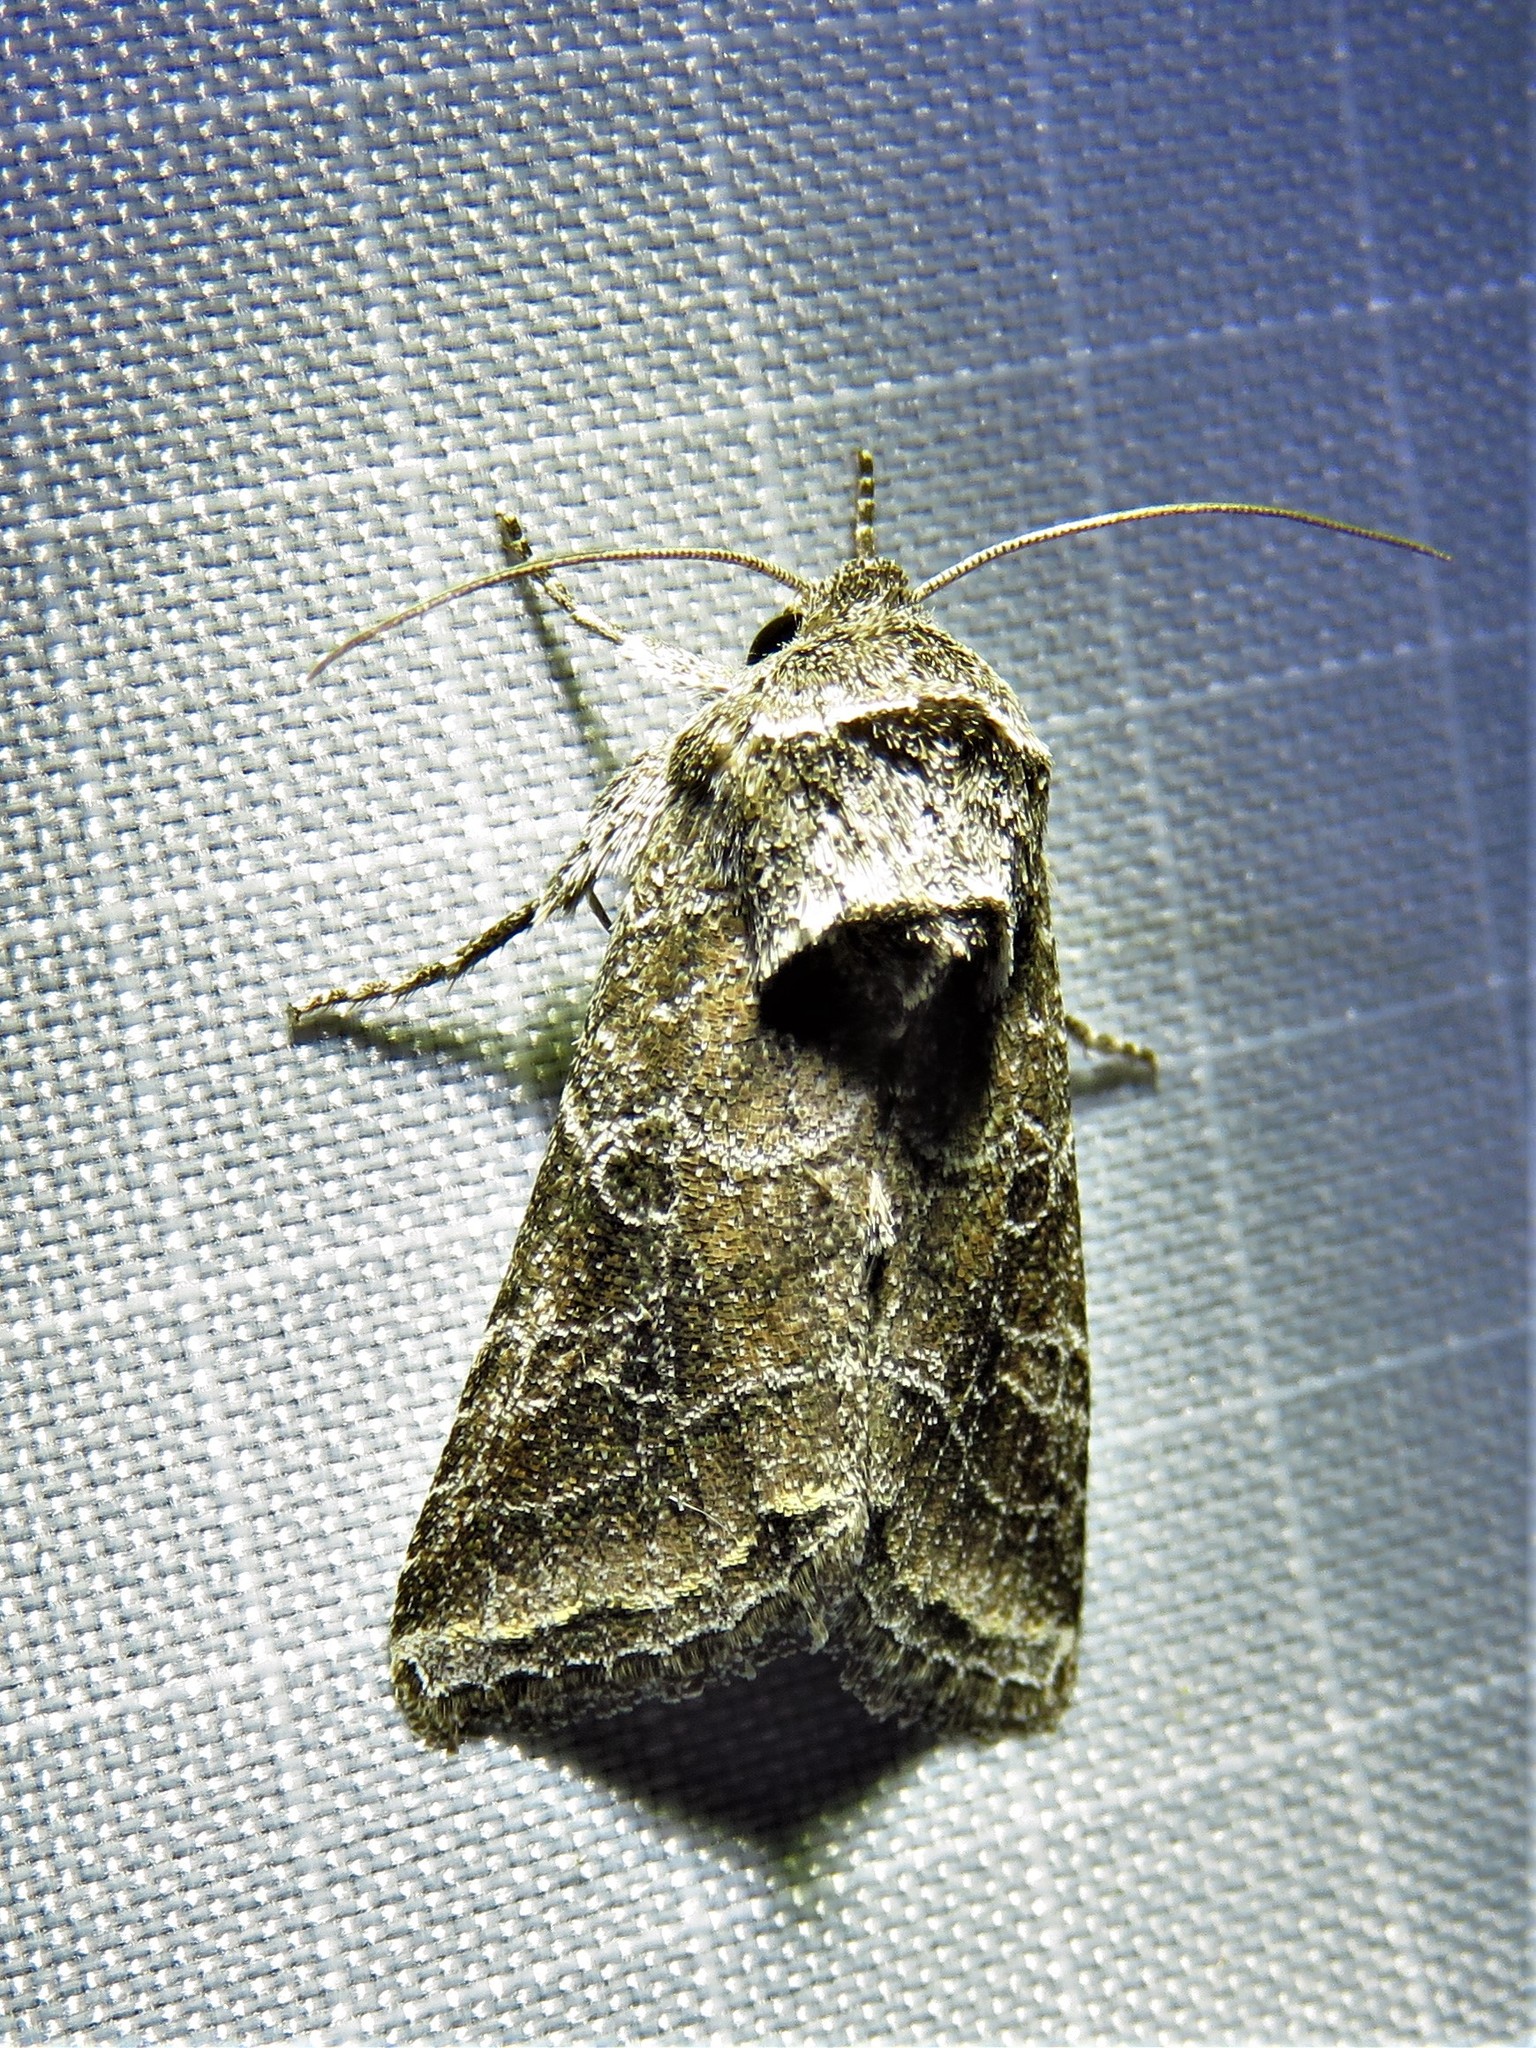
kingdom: Animalia
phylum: Arthropoda
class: Insecta
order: Lepidoptera
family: Noctuidae
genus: Lacinipolia
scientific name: Lacinipolia erecta
